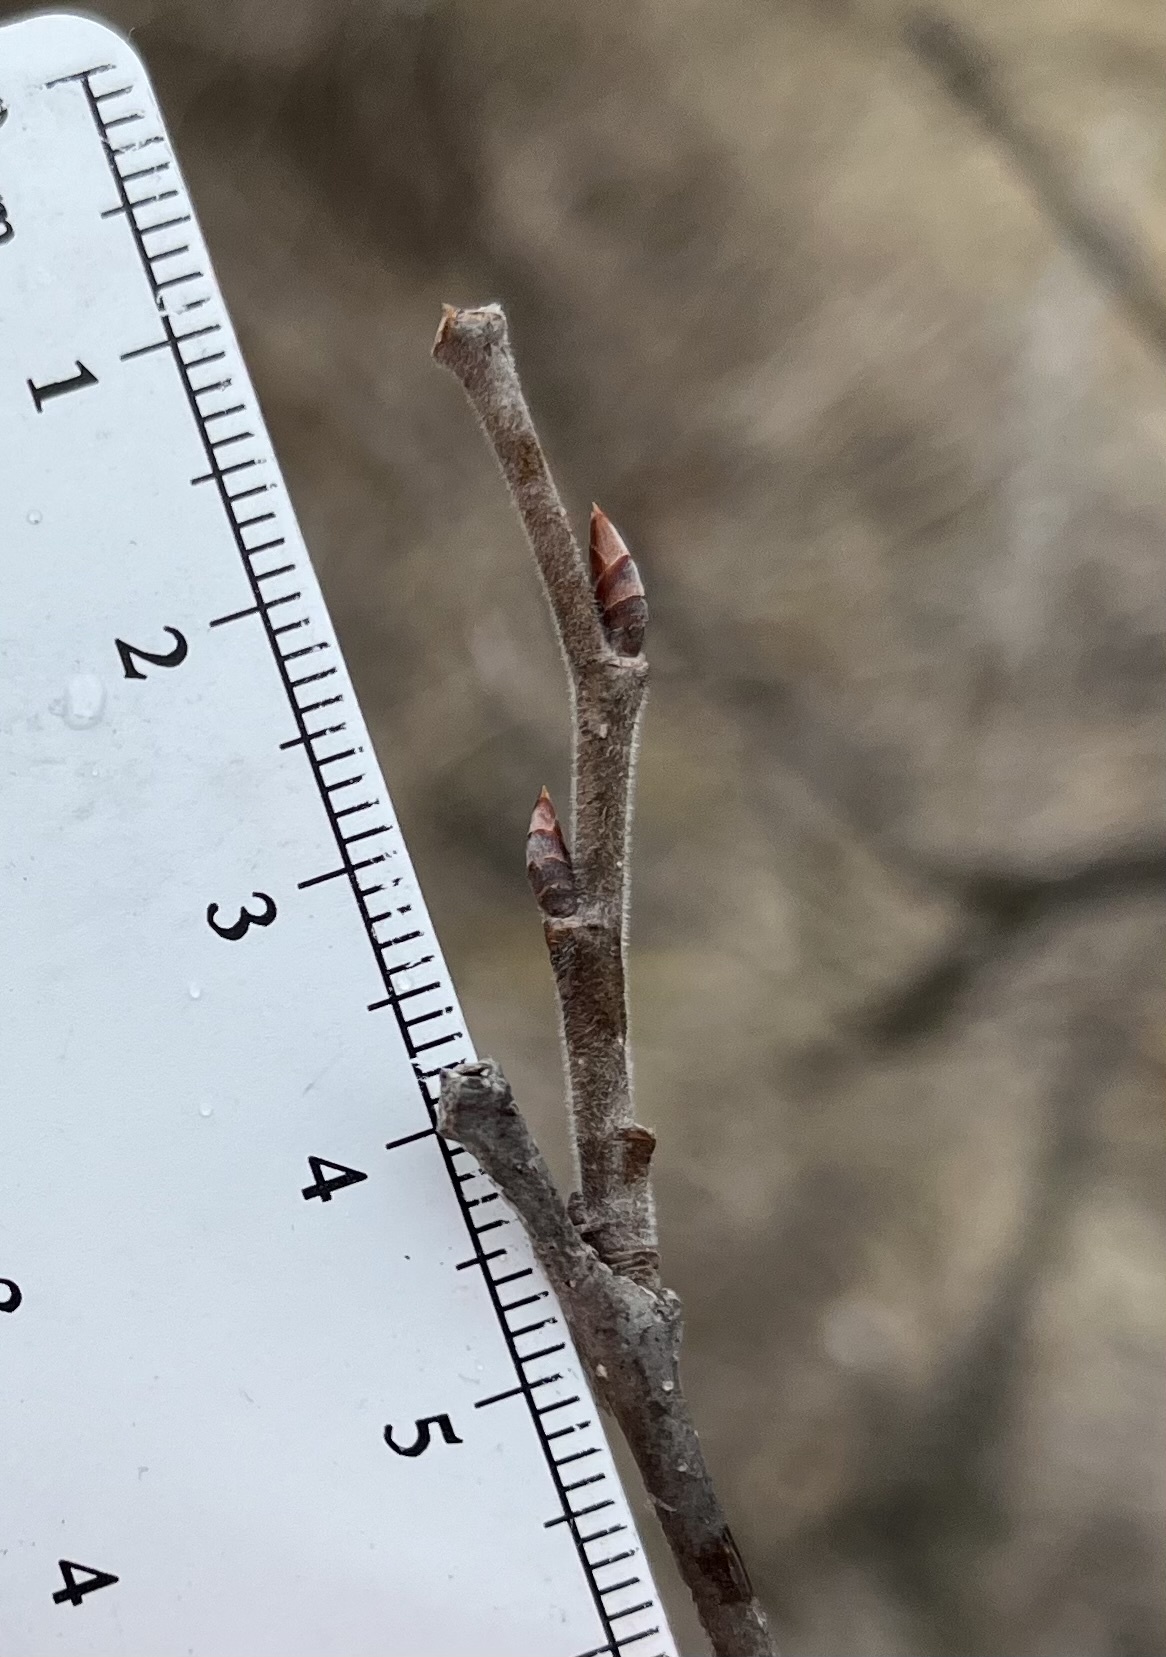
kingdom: Plantae
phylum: Tracheophyta
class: Magnoliopsida
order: Rosales
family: Ulmaceae
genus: Ulmus
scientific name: Ulmus thomasii
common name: Rock elm
